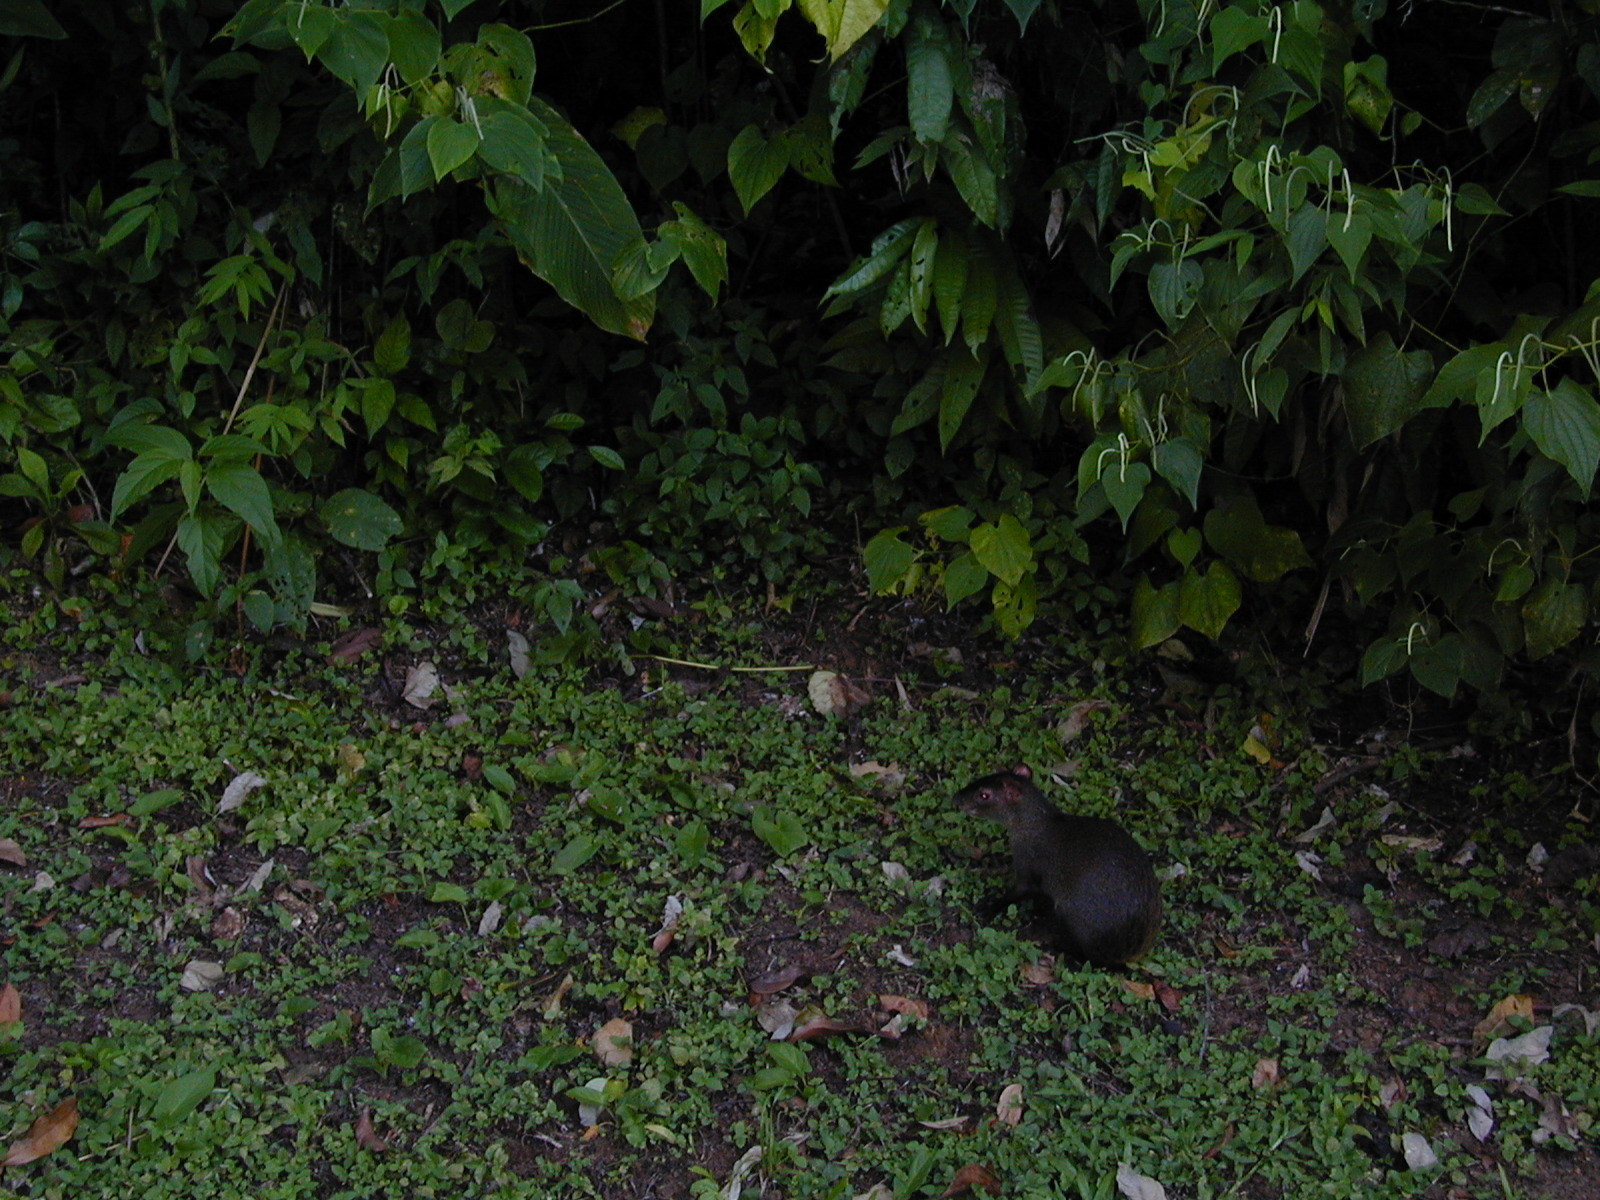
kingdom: Animalia
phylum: Chordata
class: Mammalia
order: Rodentia
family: Dasyproctidae
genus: Dasyprocta
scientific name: Dasyprocta punctata
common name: Central american agouti
